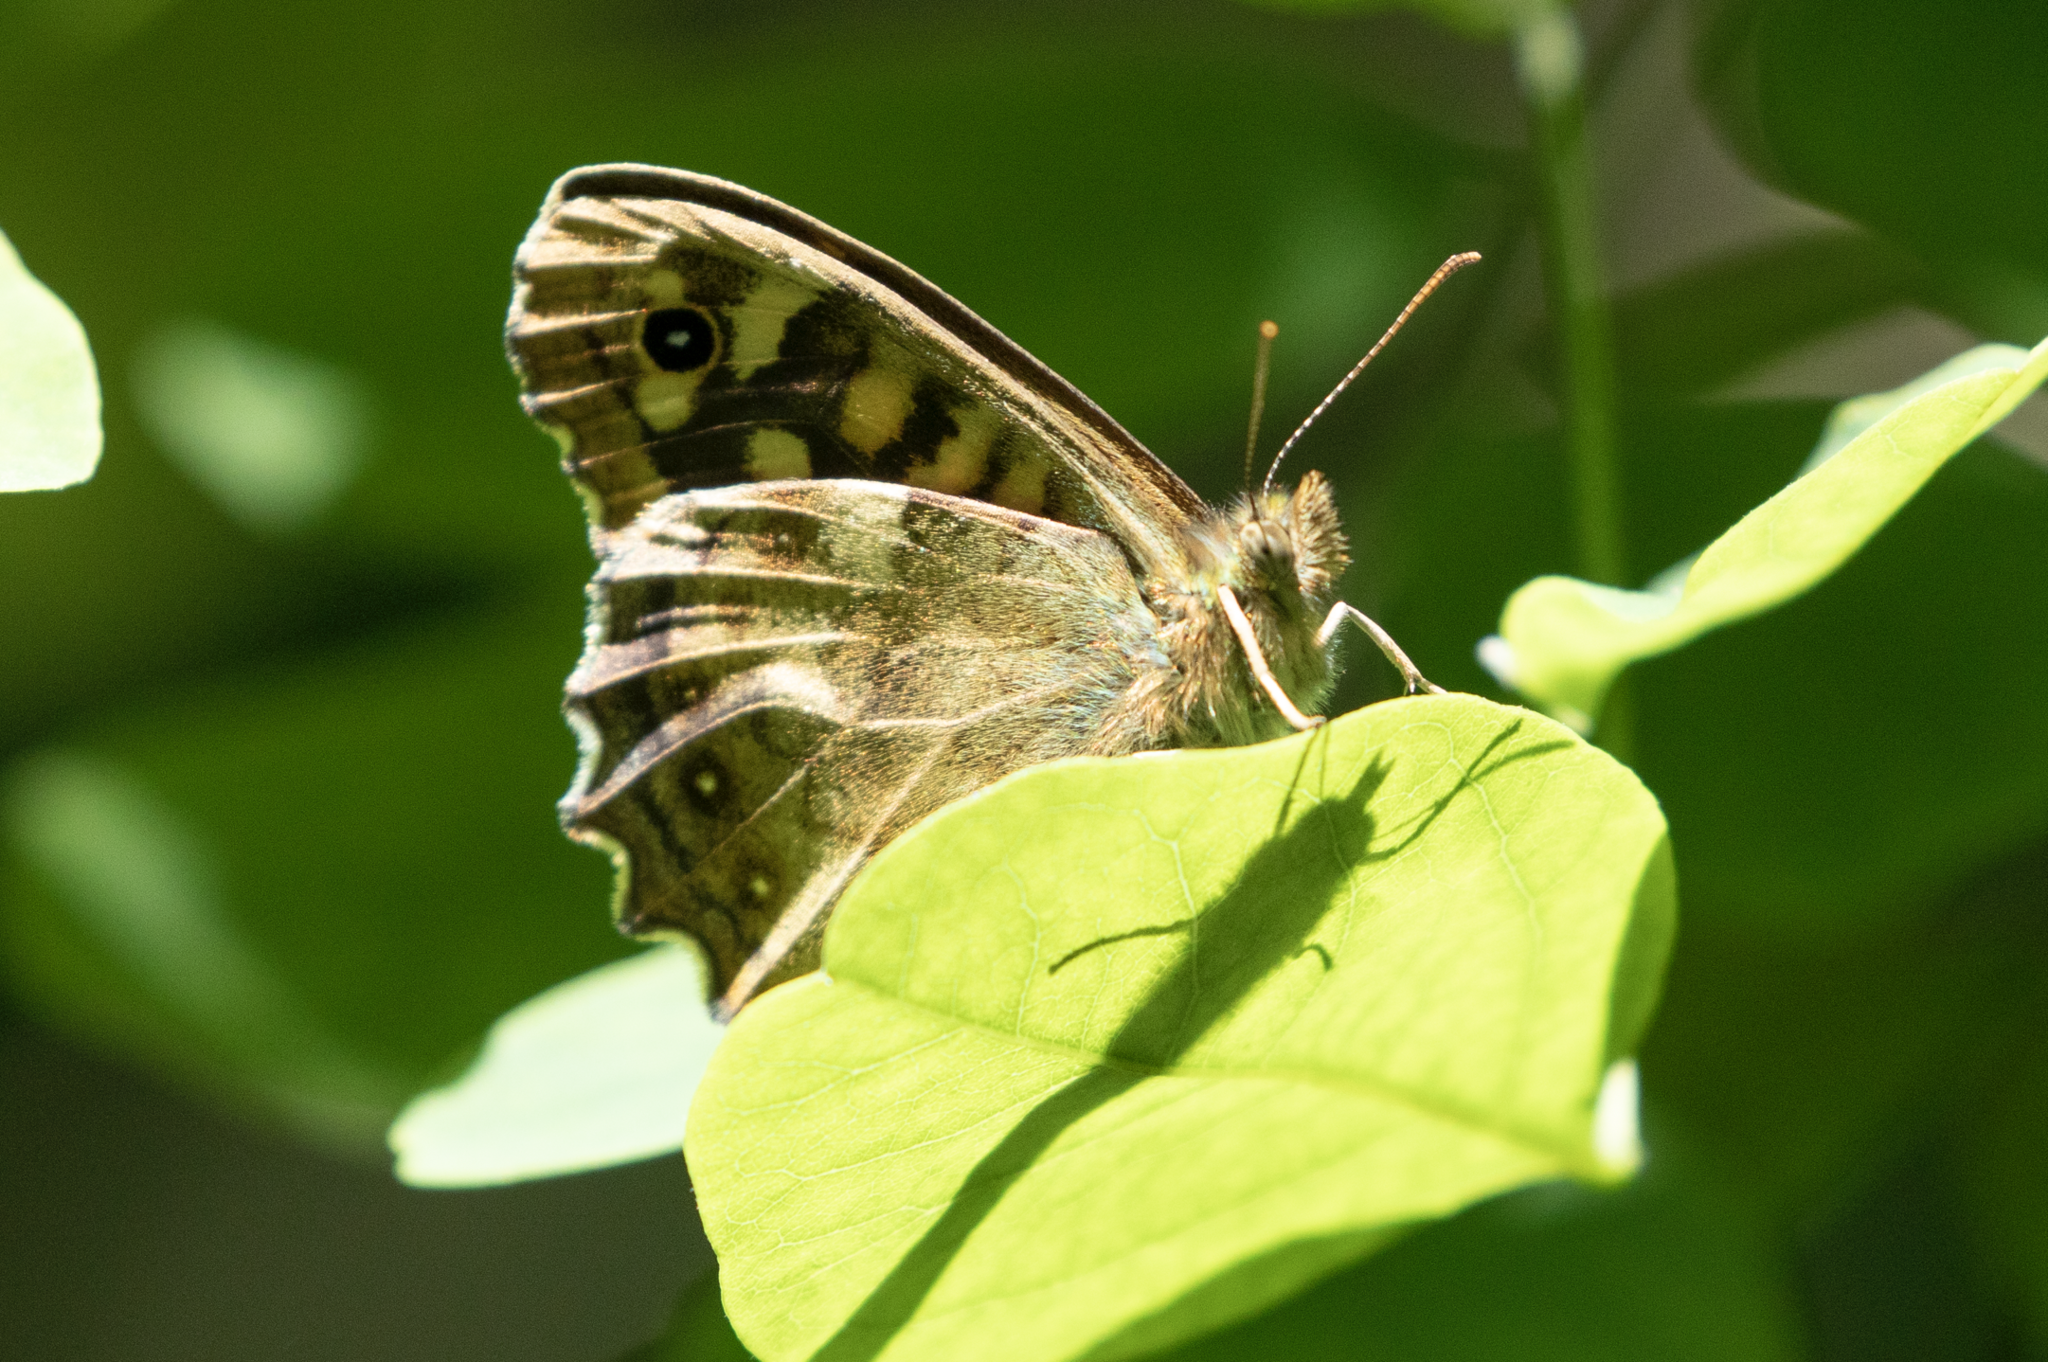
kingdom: Animalia
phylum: Arthropoda
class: Insecta
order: Lepidoptera
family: Nymphalidae
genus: Pararge
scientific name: Pararge aegeria
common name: Speckled wood
